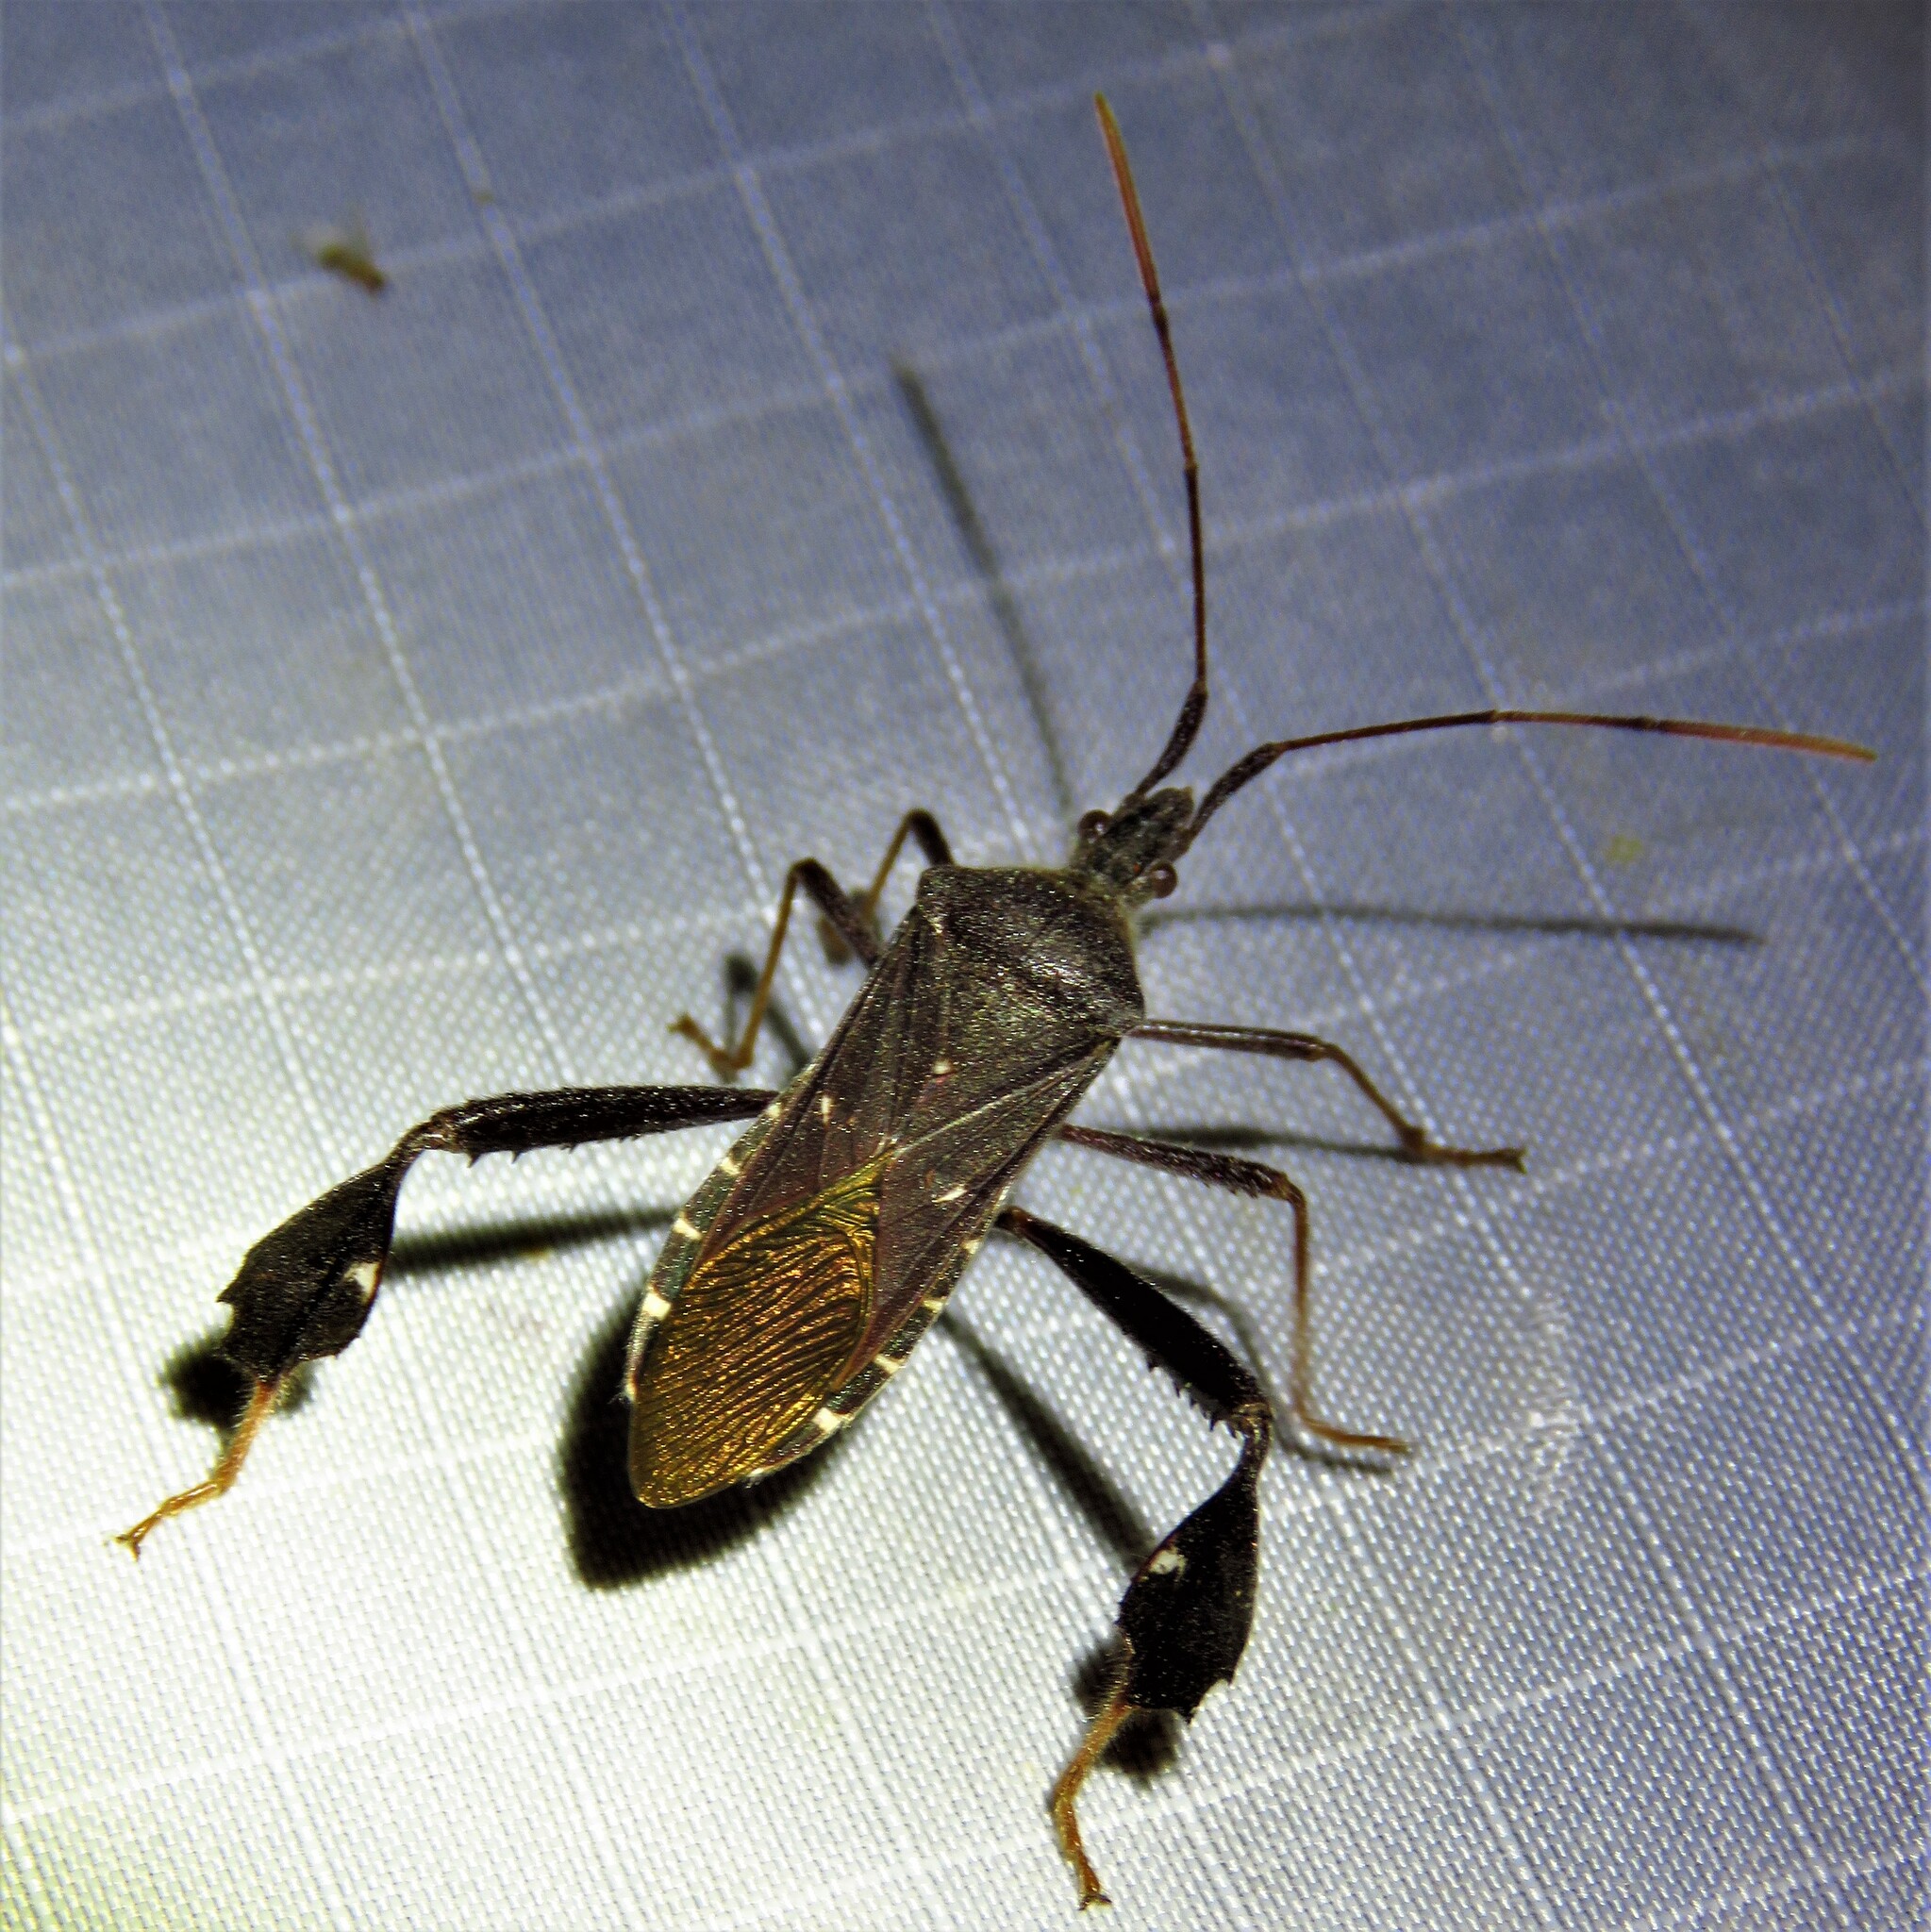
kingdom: Animalia
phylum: Arthropoda
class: Insecta
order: Hemiptera
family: Coreidae
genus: Leptoglossus
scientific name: Leptoglossus oppositus
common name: Northern leaf-footed bug
